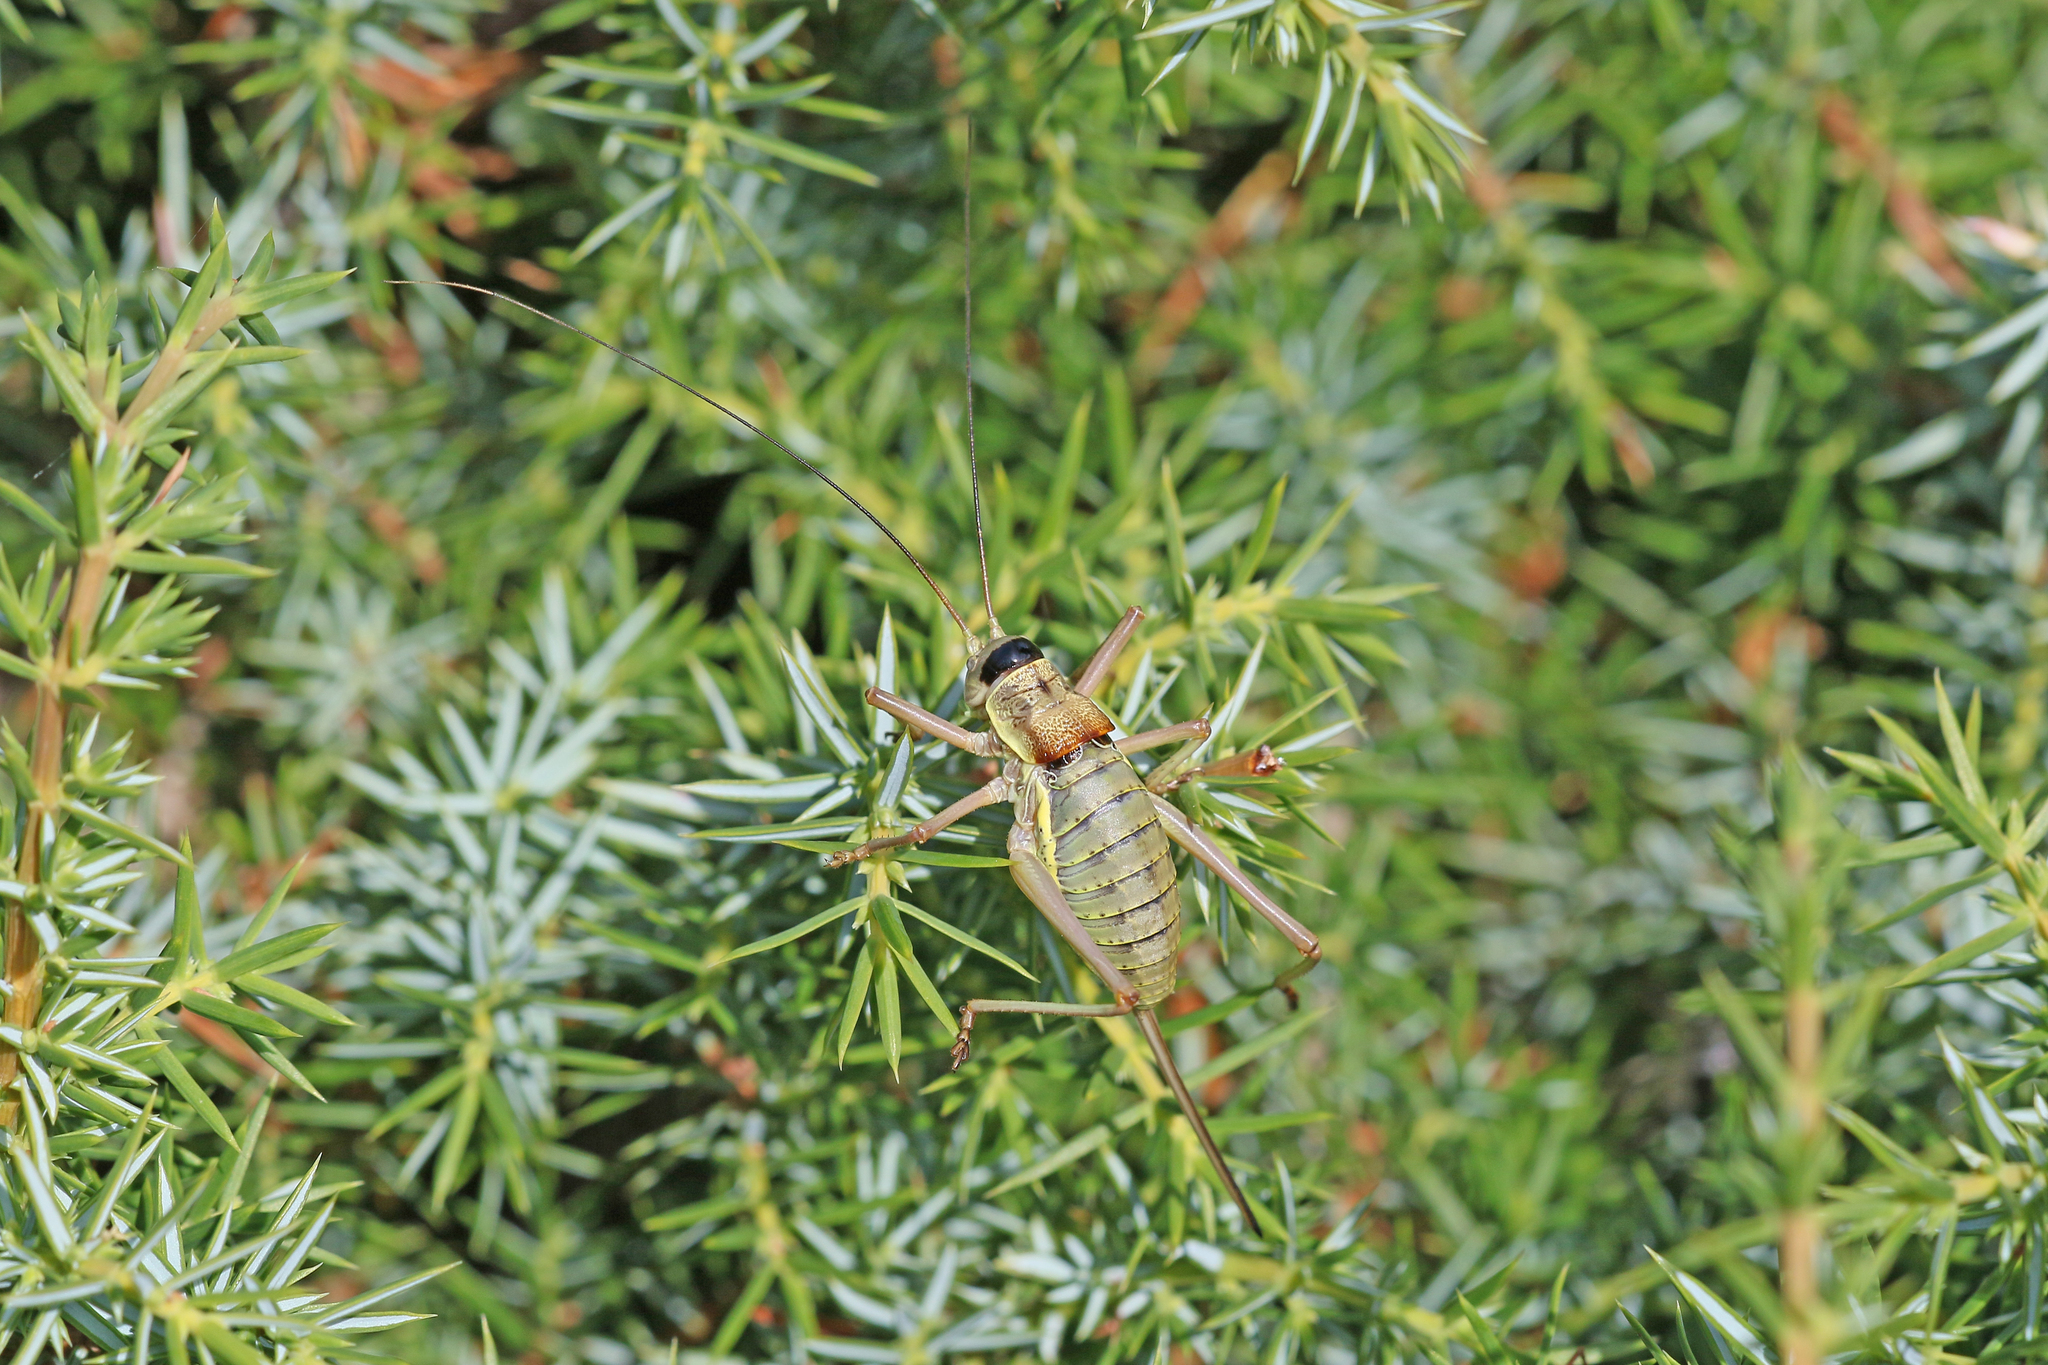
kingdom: Animalia
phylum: Arthropoda
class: Insecta
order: Orthoptera
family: Tettigoniidae
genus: Ephippiger
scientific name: Ephippiger diurnus
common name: Western saddle bush-cricket
